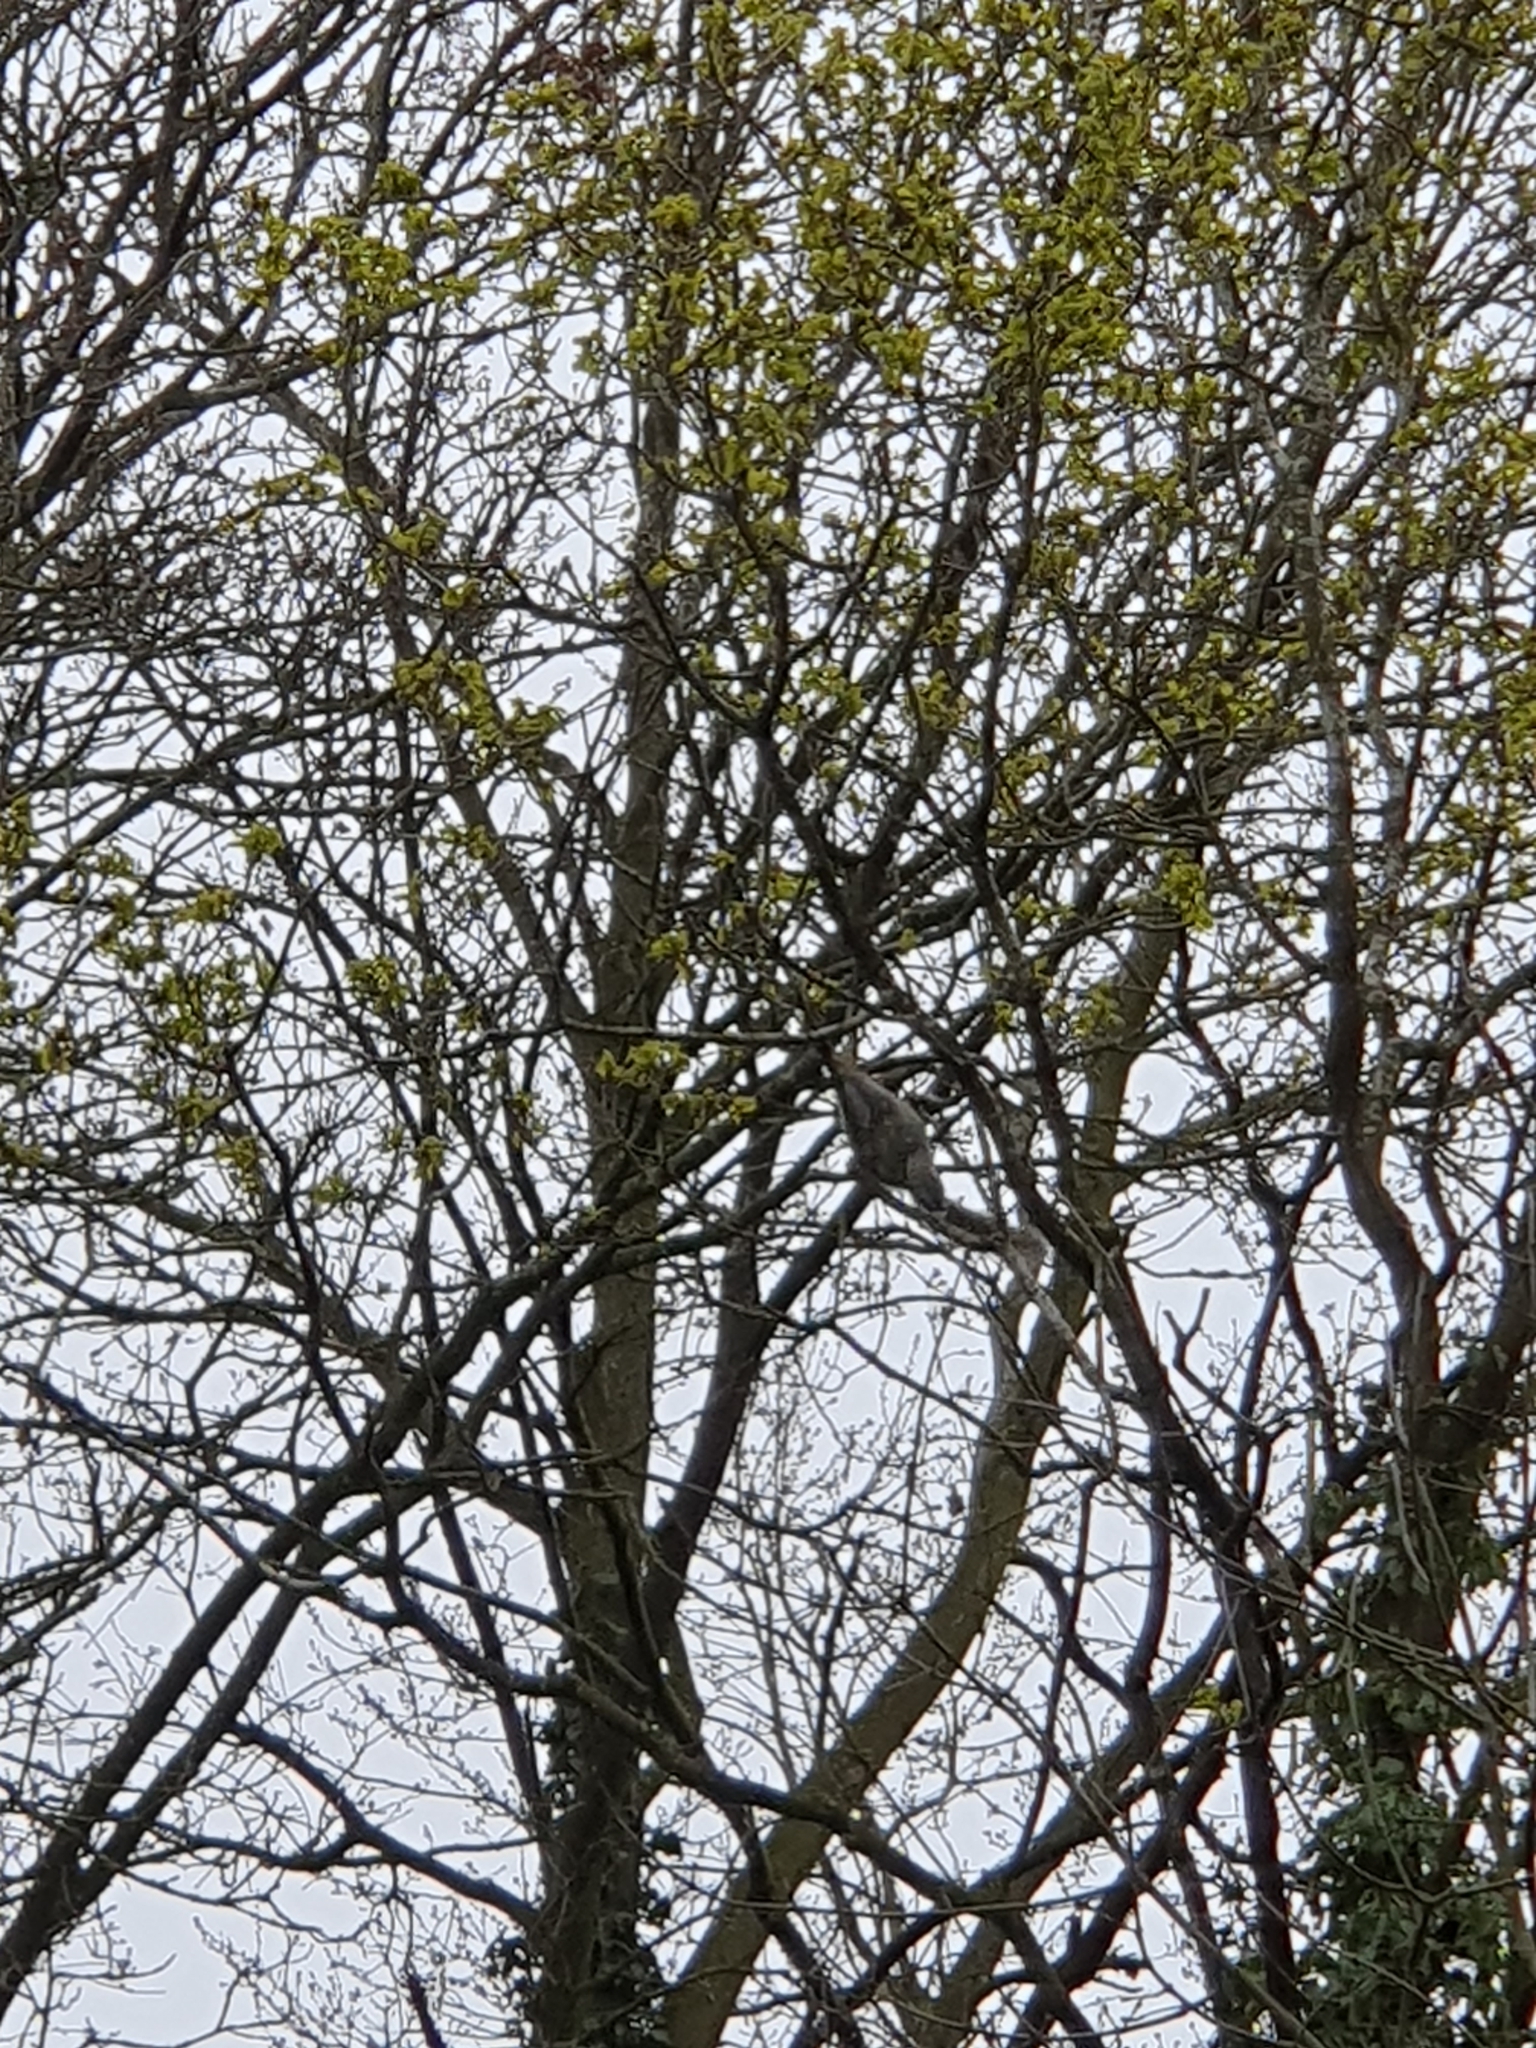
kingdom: Animalia
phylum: Chordata
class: Mammalia
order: Rodentia
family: Sciuridae
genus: Sciurus
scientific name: Sciurus carolinensis
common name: Eastern gray squirrel
